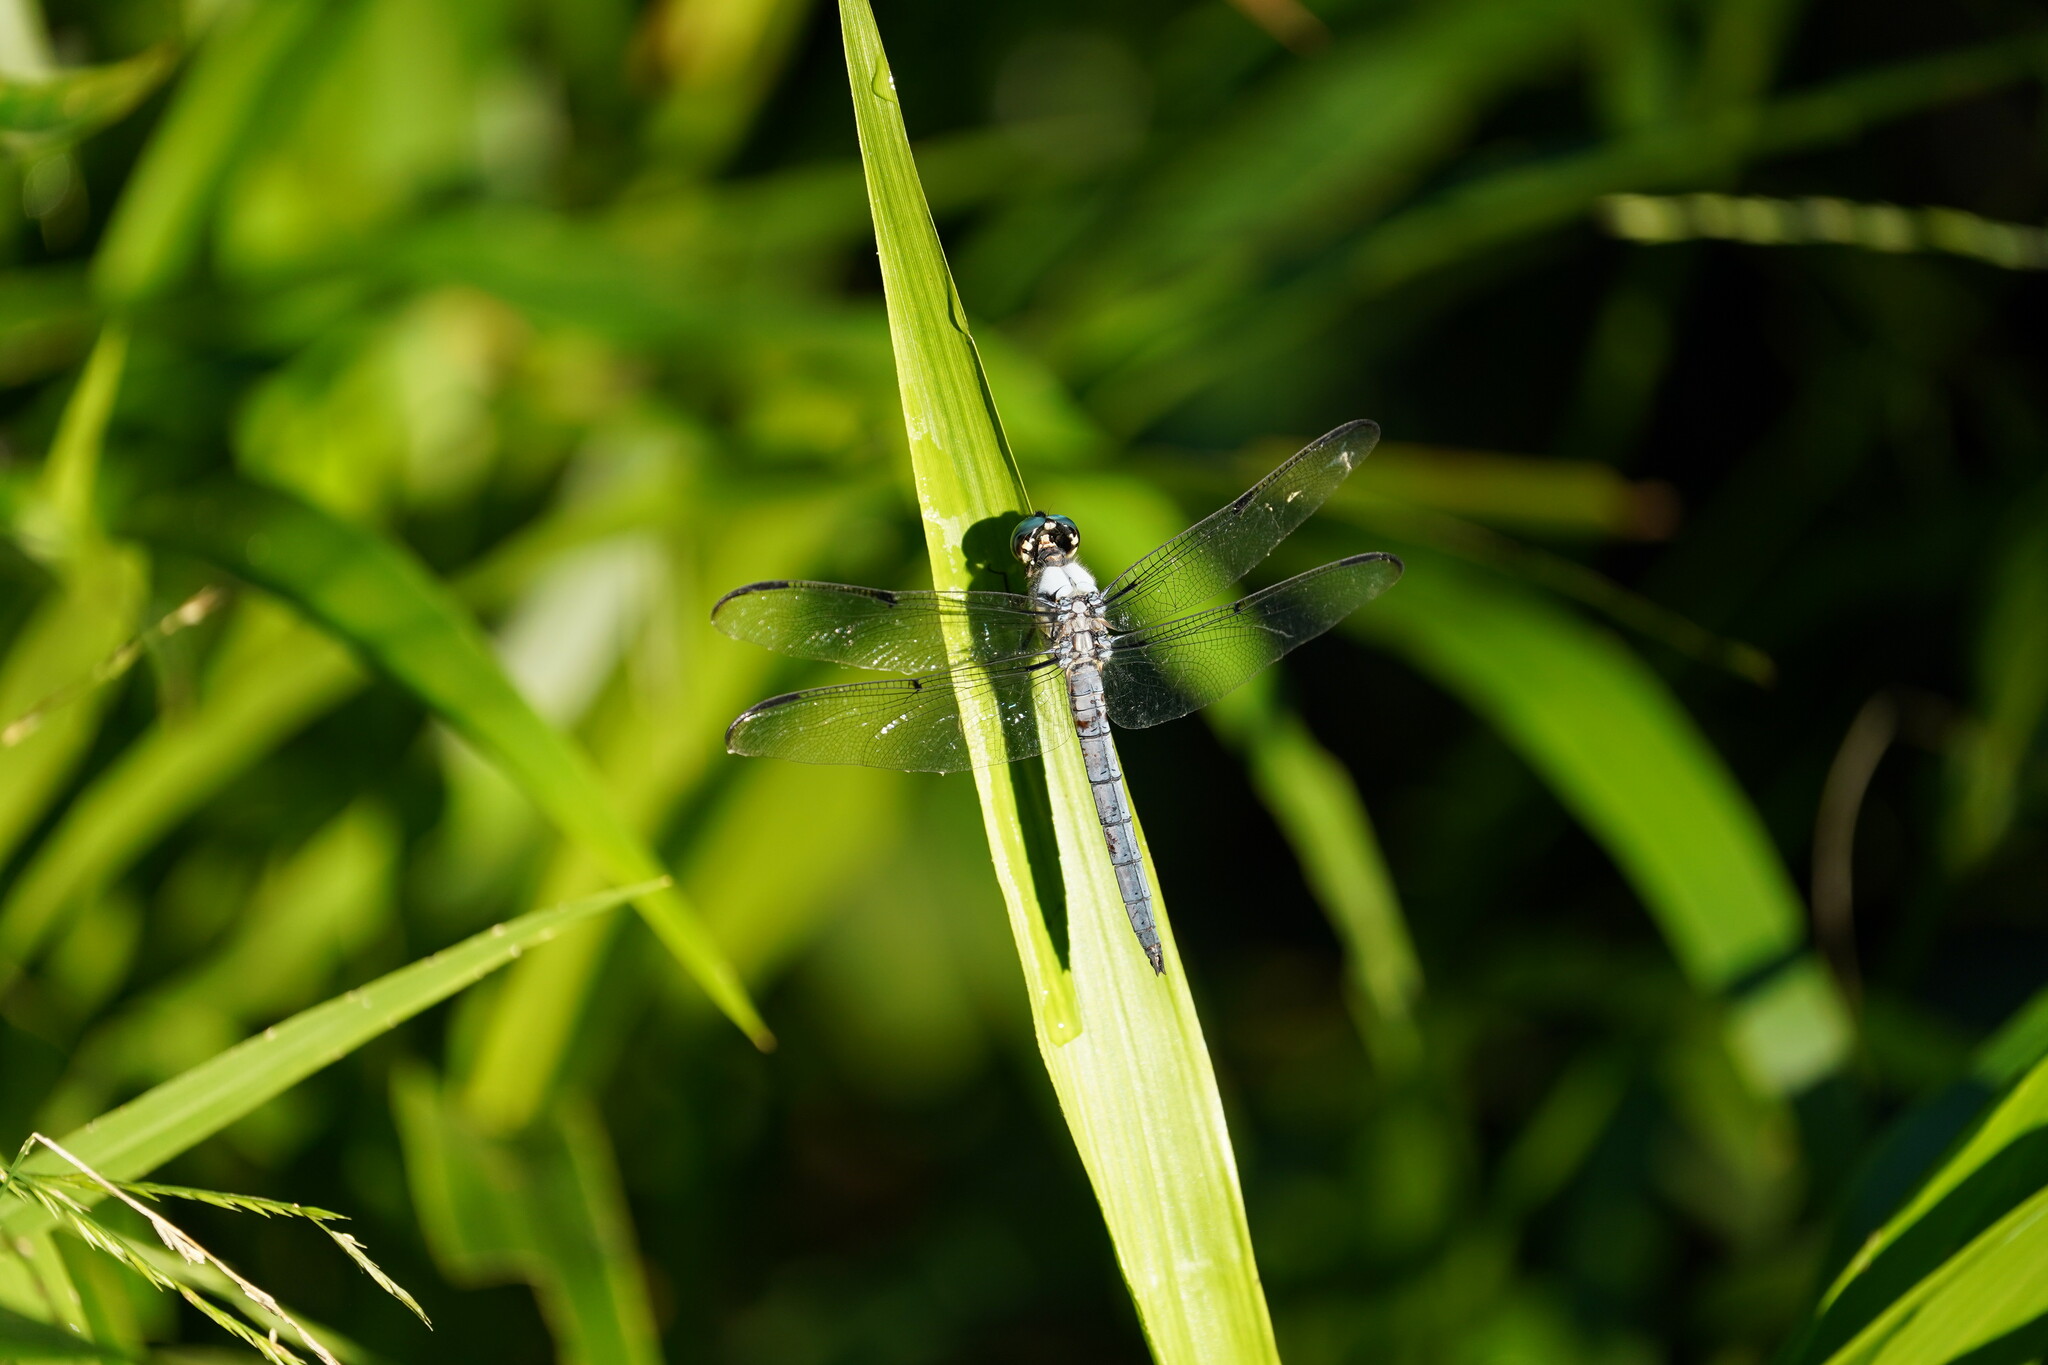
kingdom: Animalia
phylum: Arthropoda
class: Insecta
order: Odonata
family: Libellulidae
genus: Libellula
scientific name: Libellula vibrans
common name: Great blue skimmer
